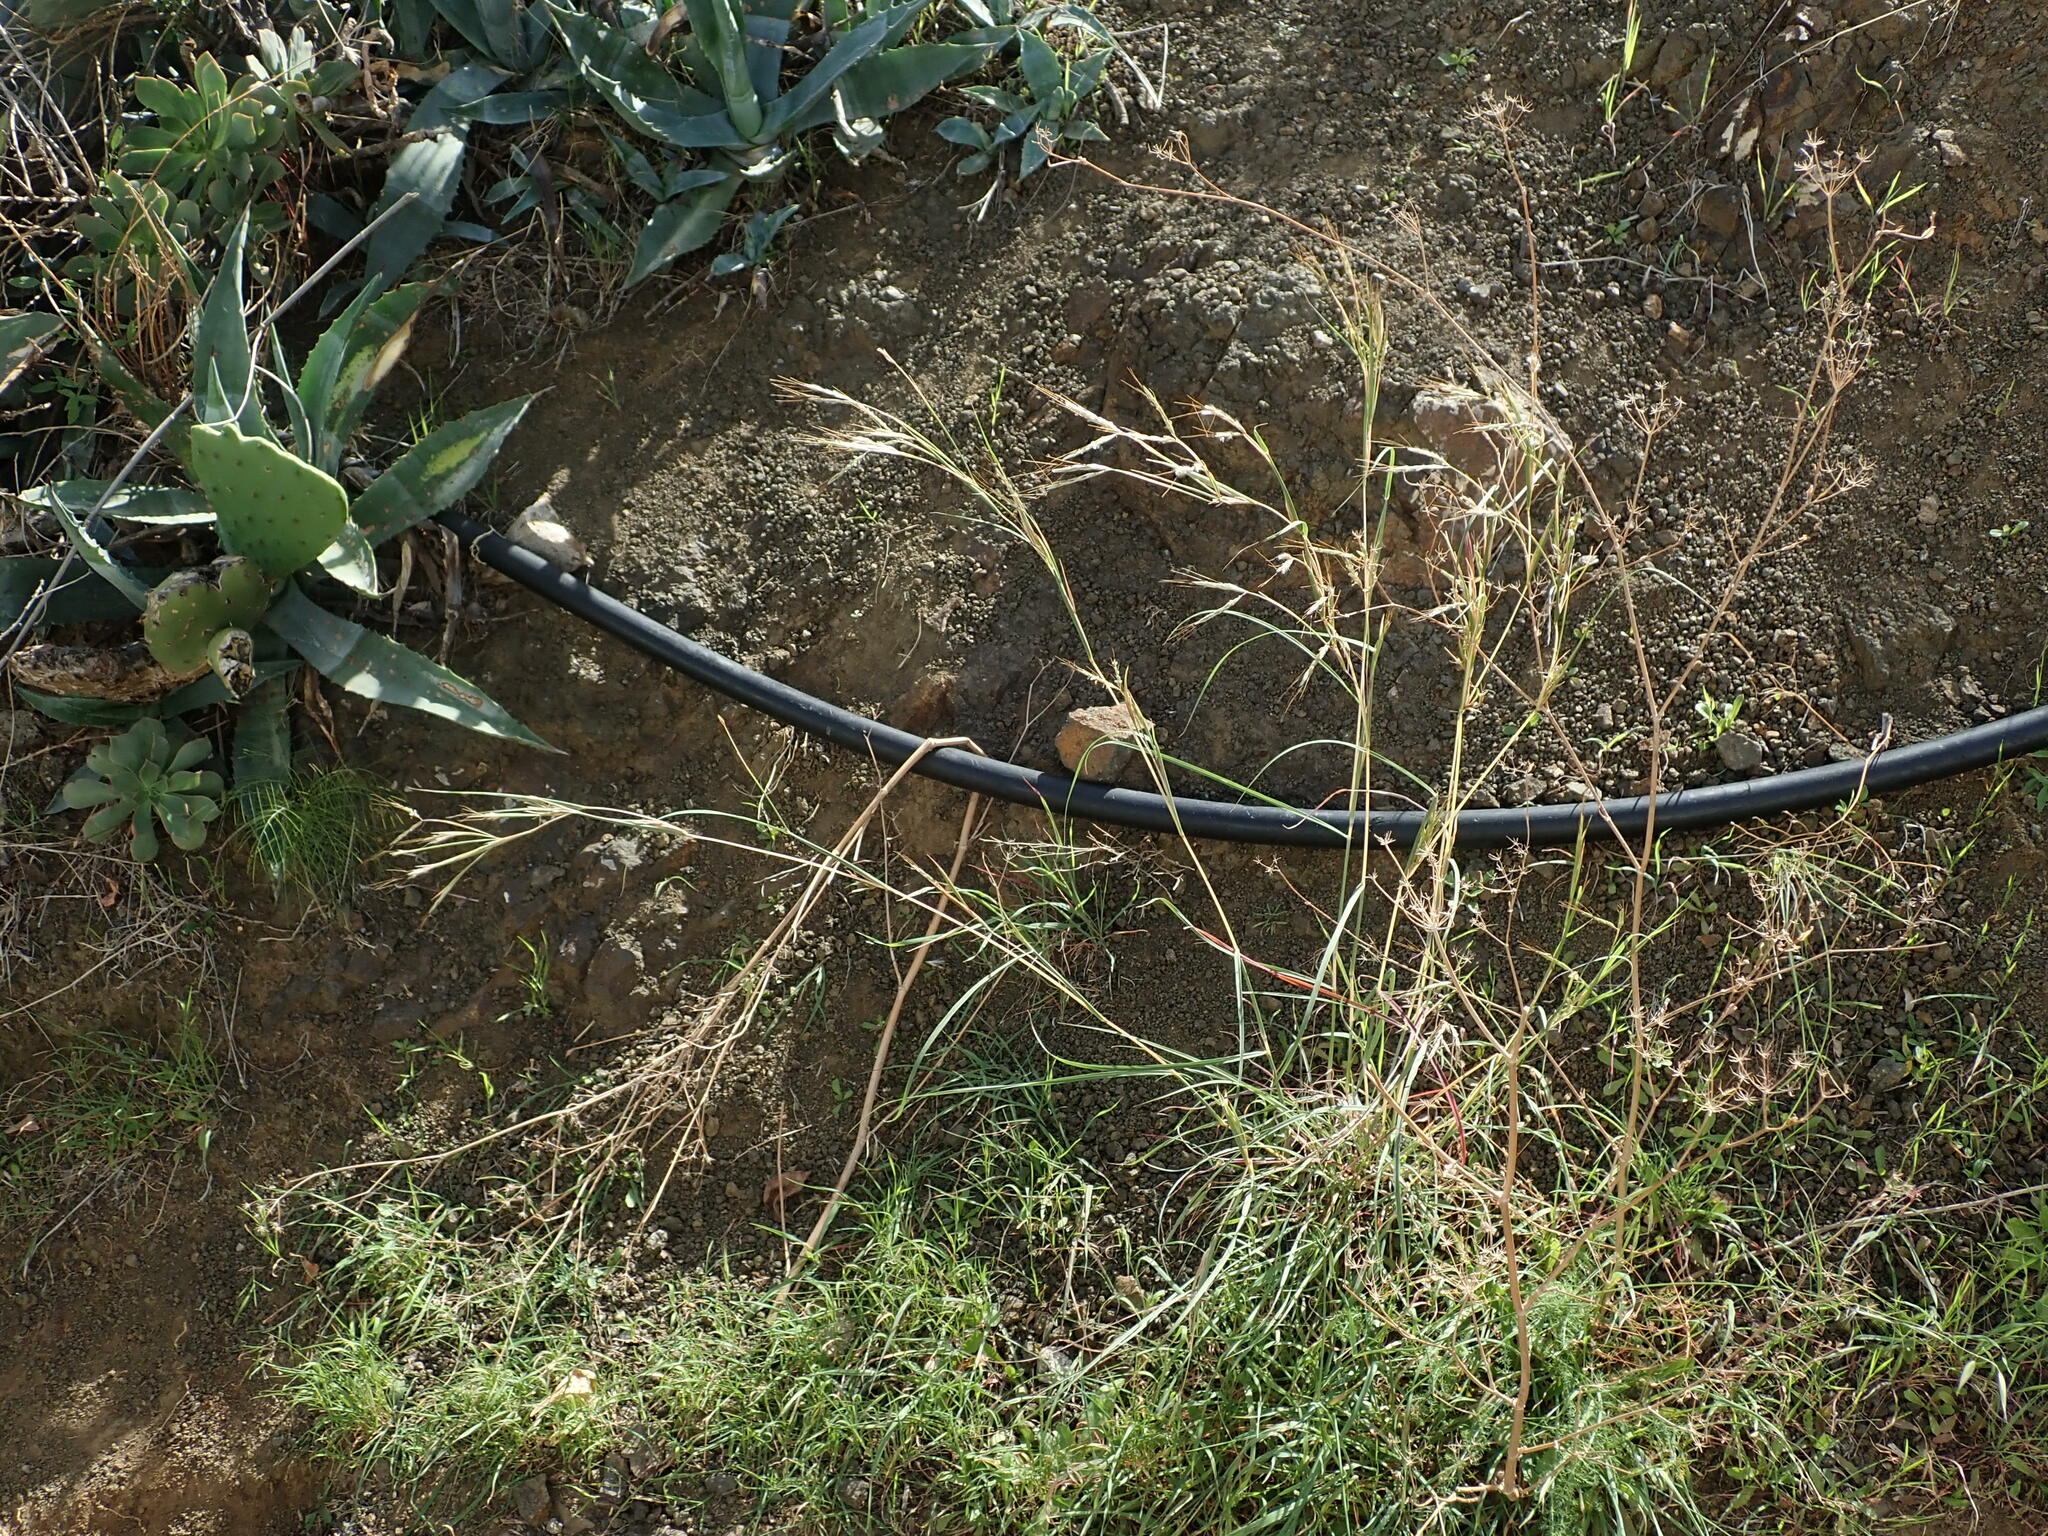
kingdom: Plantae
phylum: Tracheophyta
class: Liliopsida
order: Poales
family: Poaceae
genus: Hyparrhenia
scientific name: Hyparrhenia hirta
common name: Thatching grass
